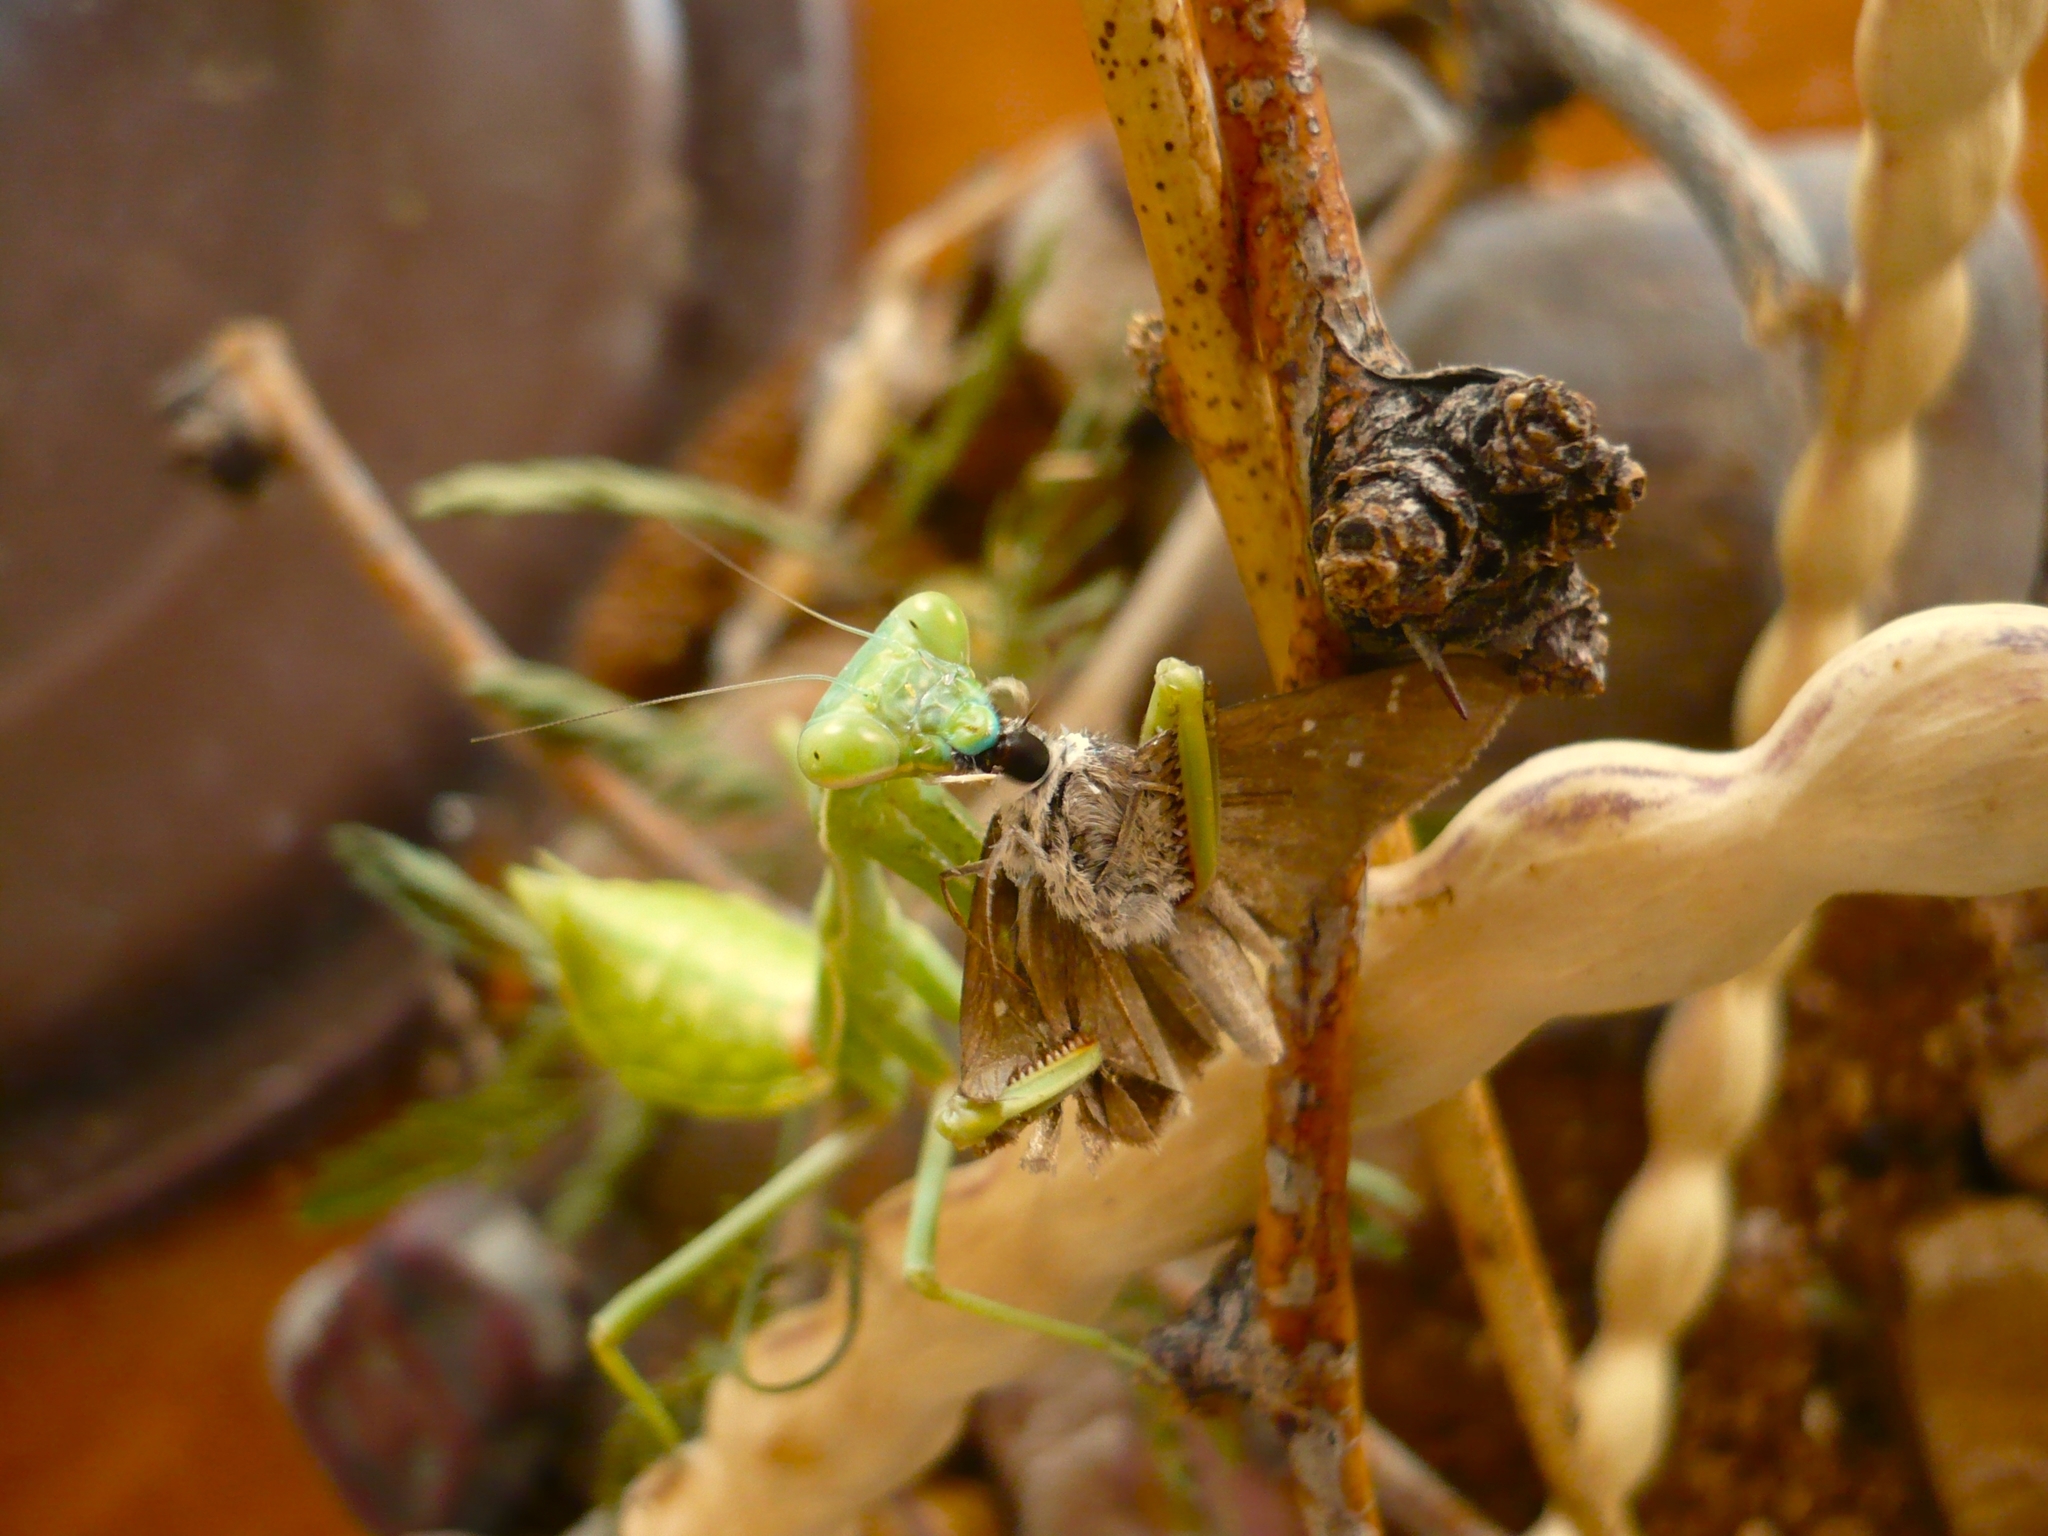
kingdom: Animalia
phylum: Arthropoda
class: Insecta
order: Mantodea
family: Mantidae
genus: Stagmomantis
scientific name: Stagmomantis limbata
